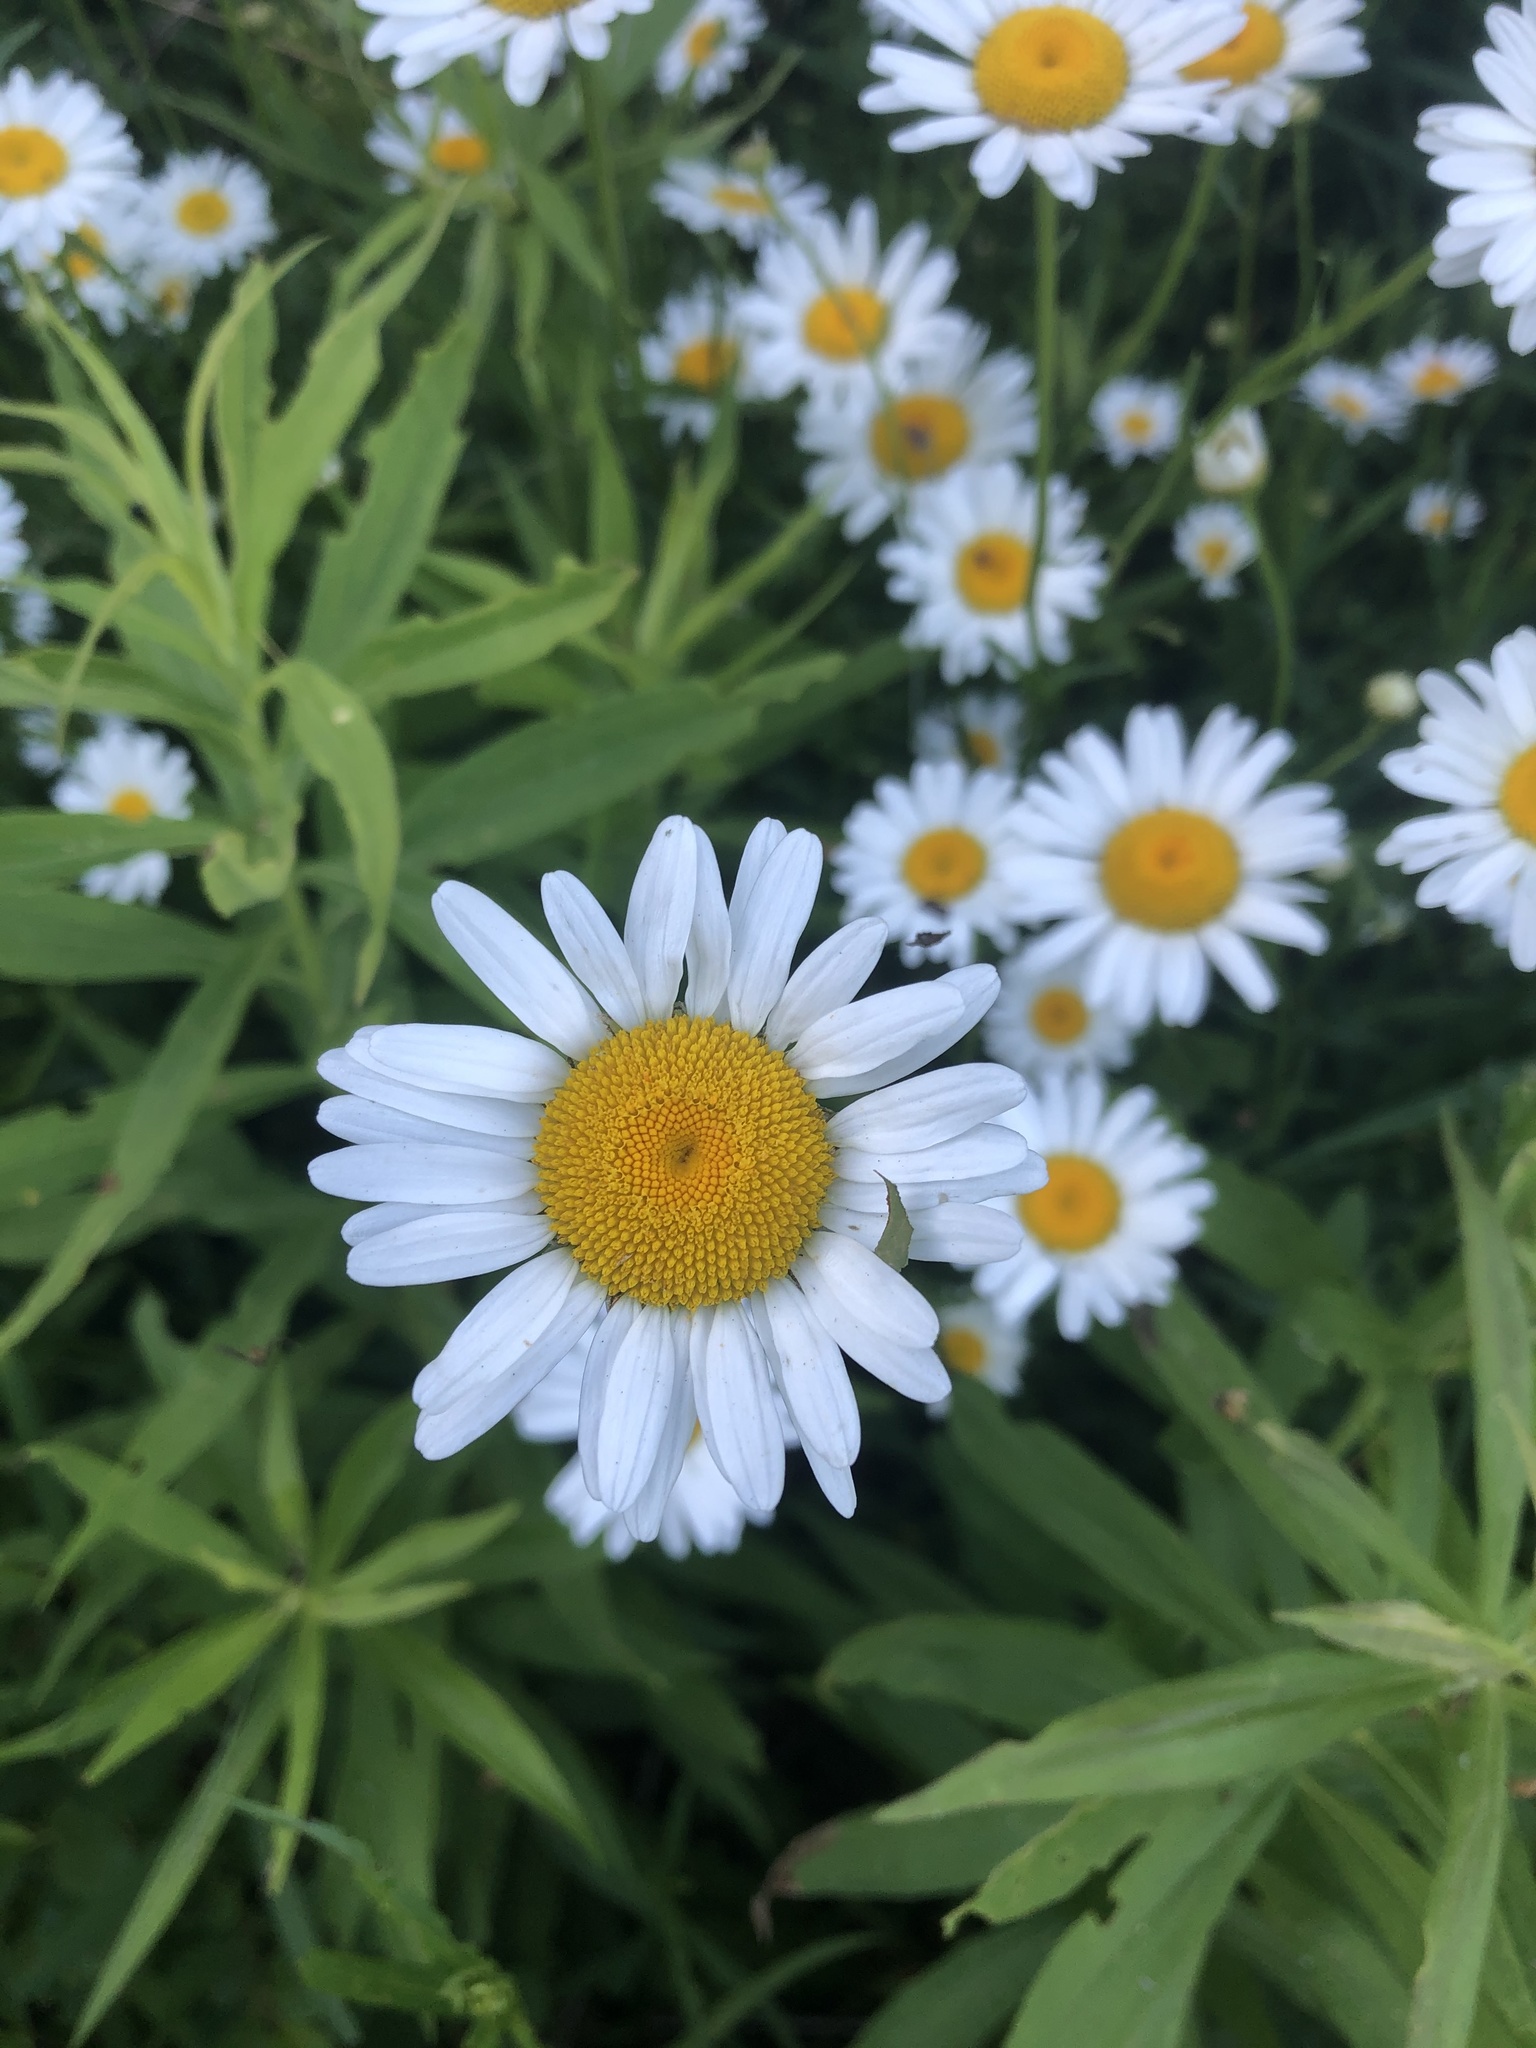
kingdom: Plantae
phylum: Tracheophyta
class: Magnoliopsida
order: Asterales
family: Asteraceae
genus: Leucanthemum
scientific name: Leucanthemum vulgare
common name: Oxeye daisy
